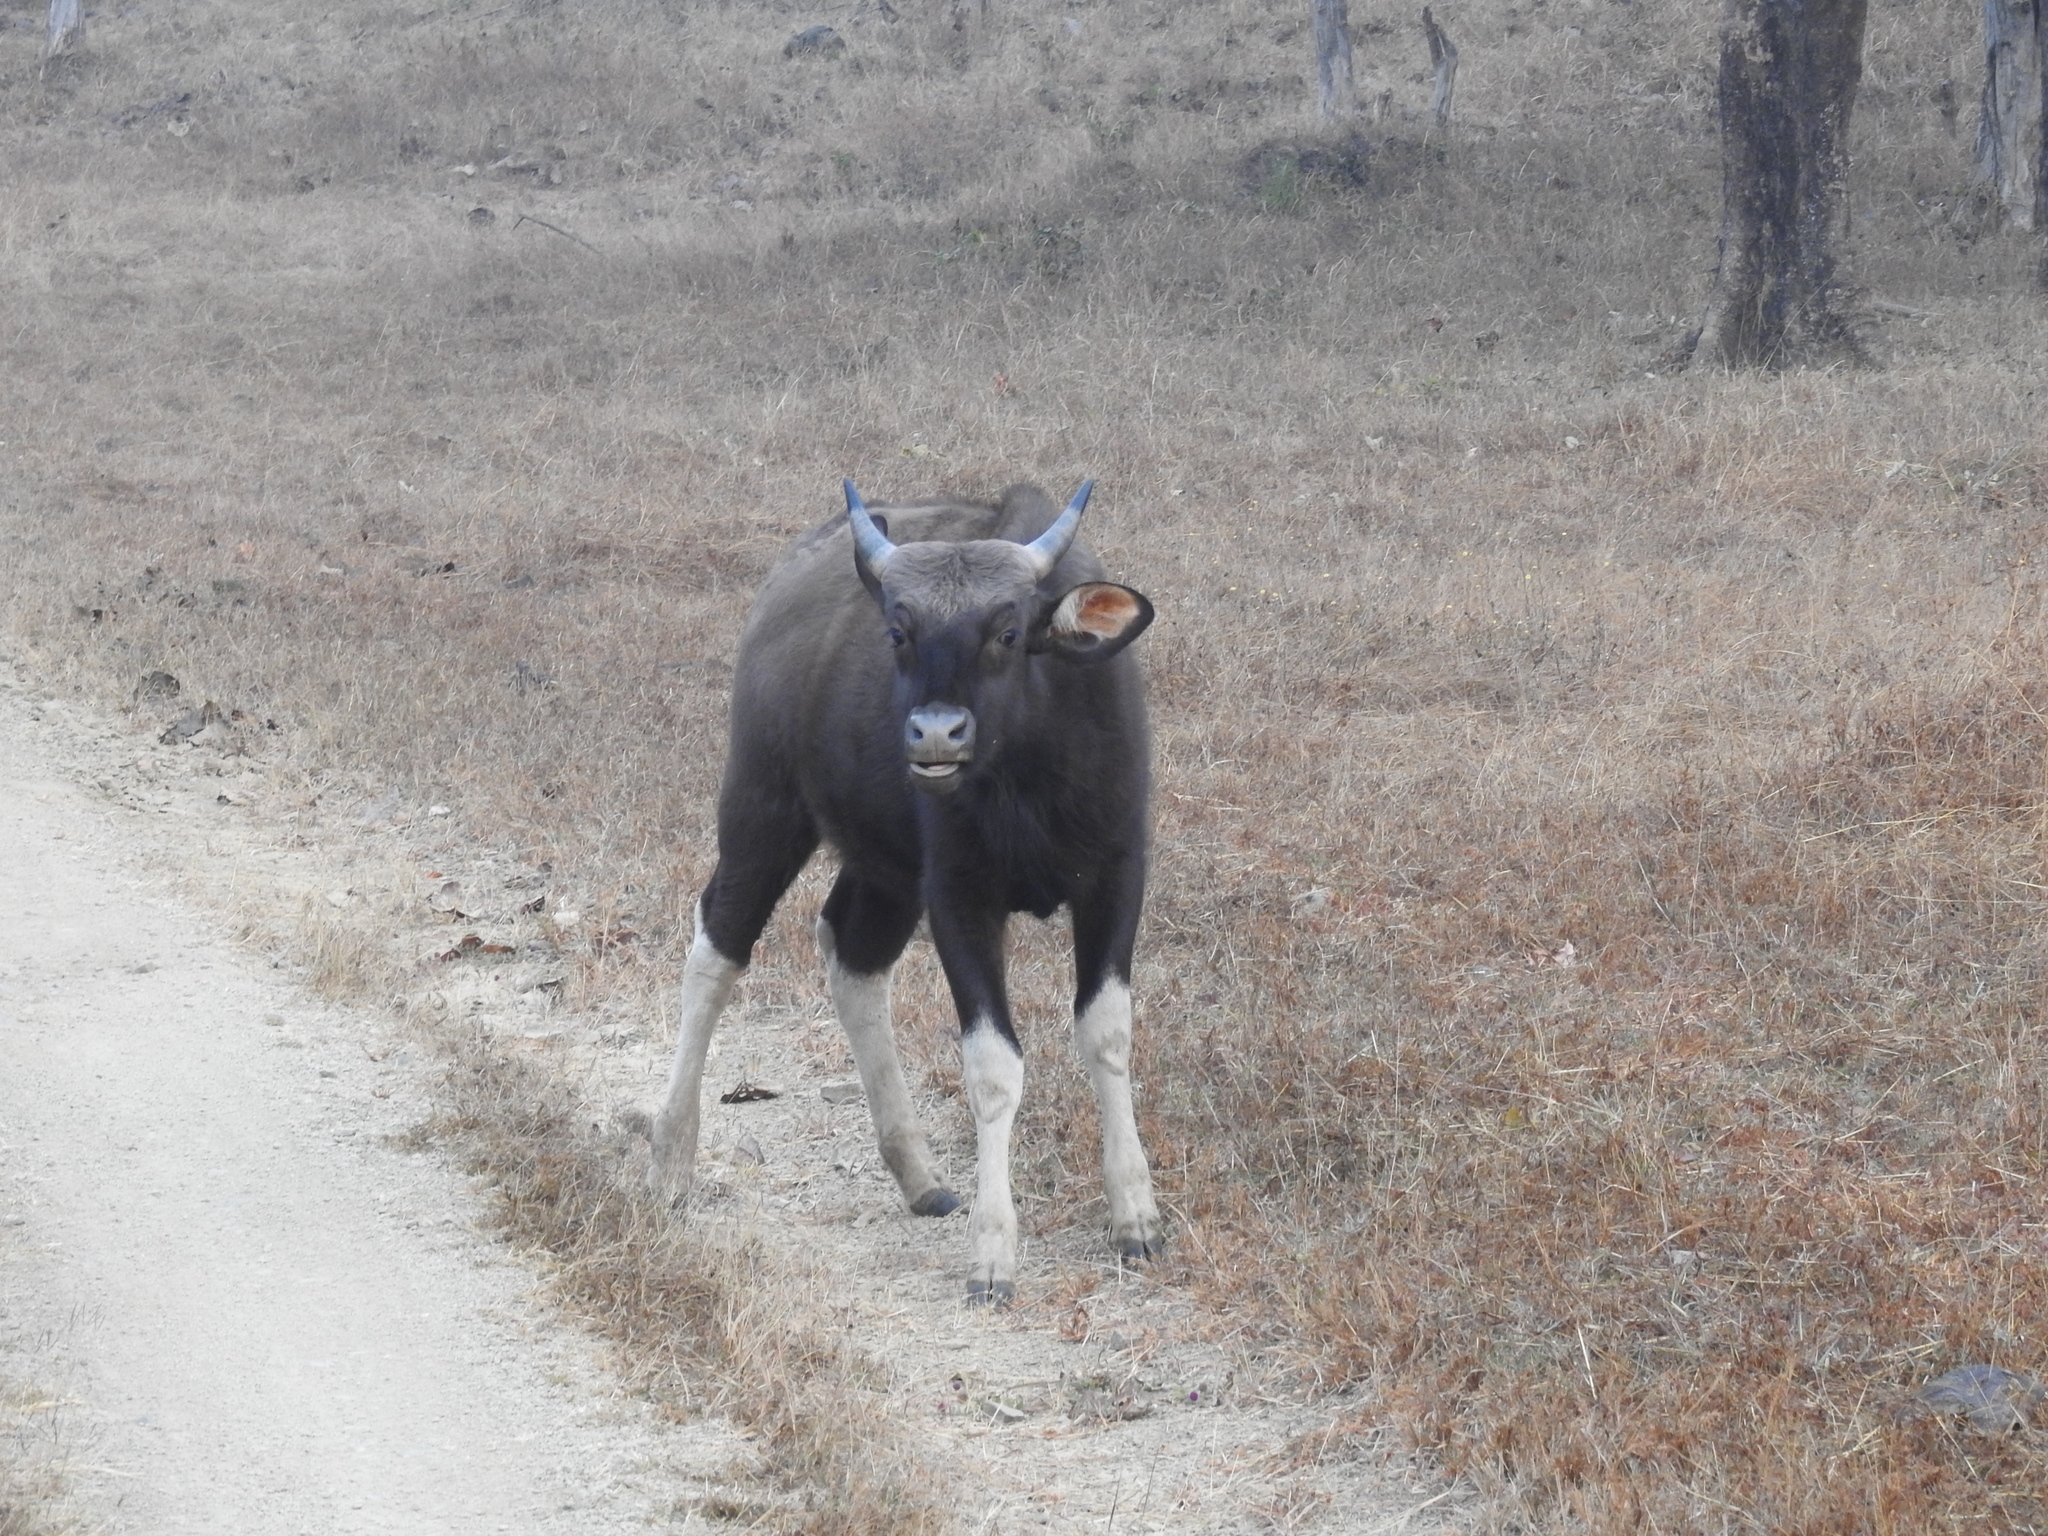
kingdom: Animalia
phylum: Chordata
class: Mammalia
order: Artiodactyla
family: Bovidae
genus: Bos
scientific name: Bos frontalis
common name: Gaur
